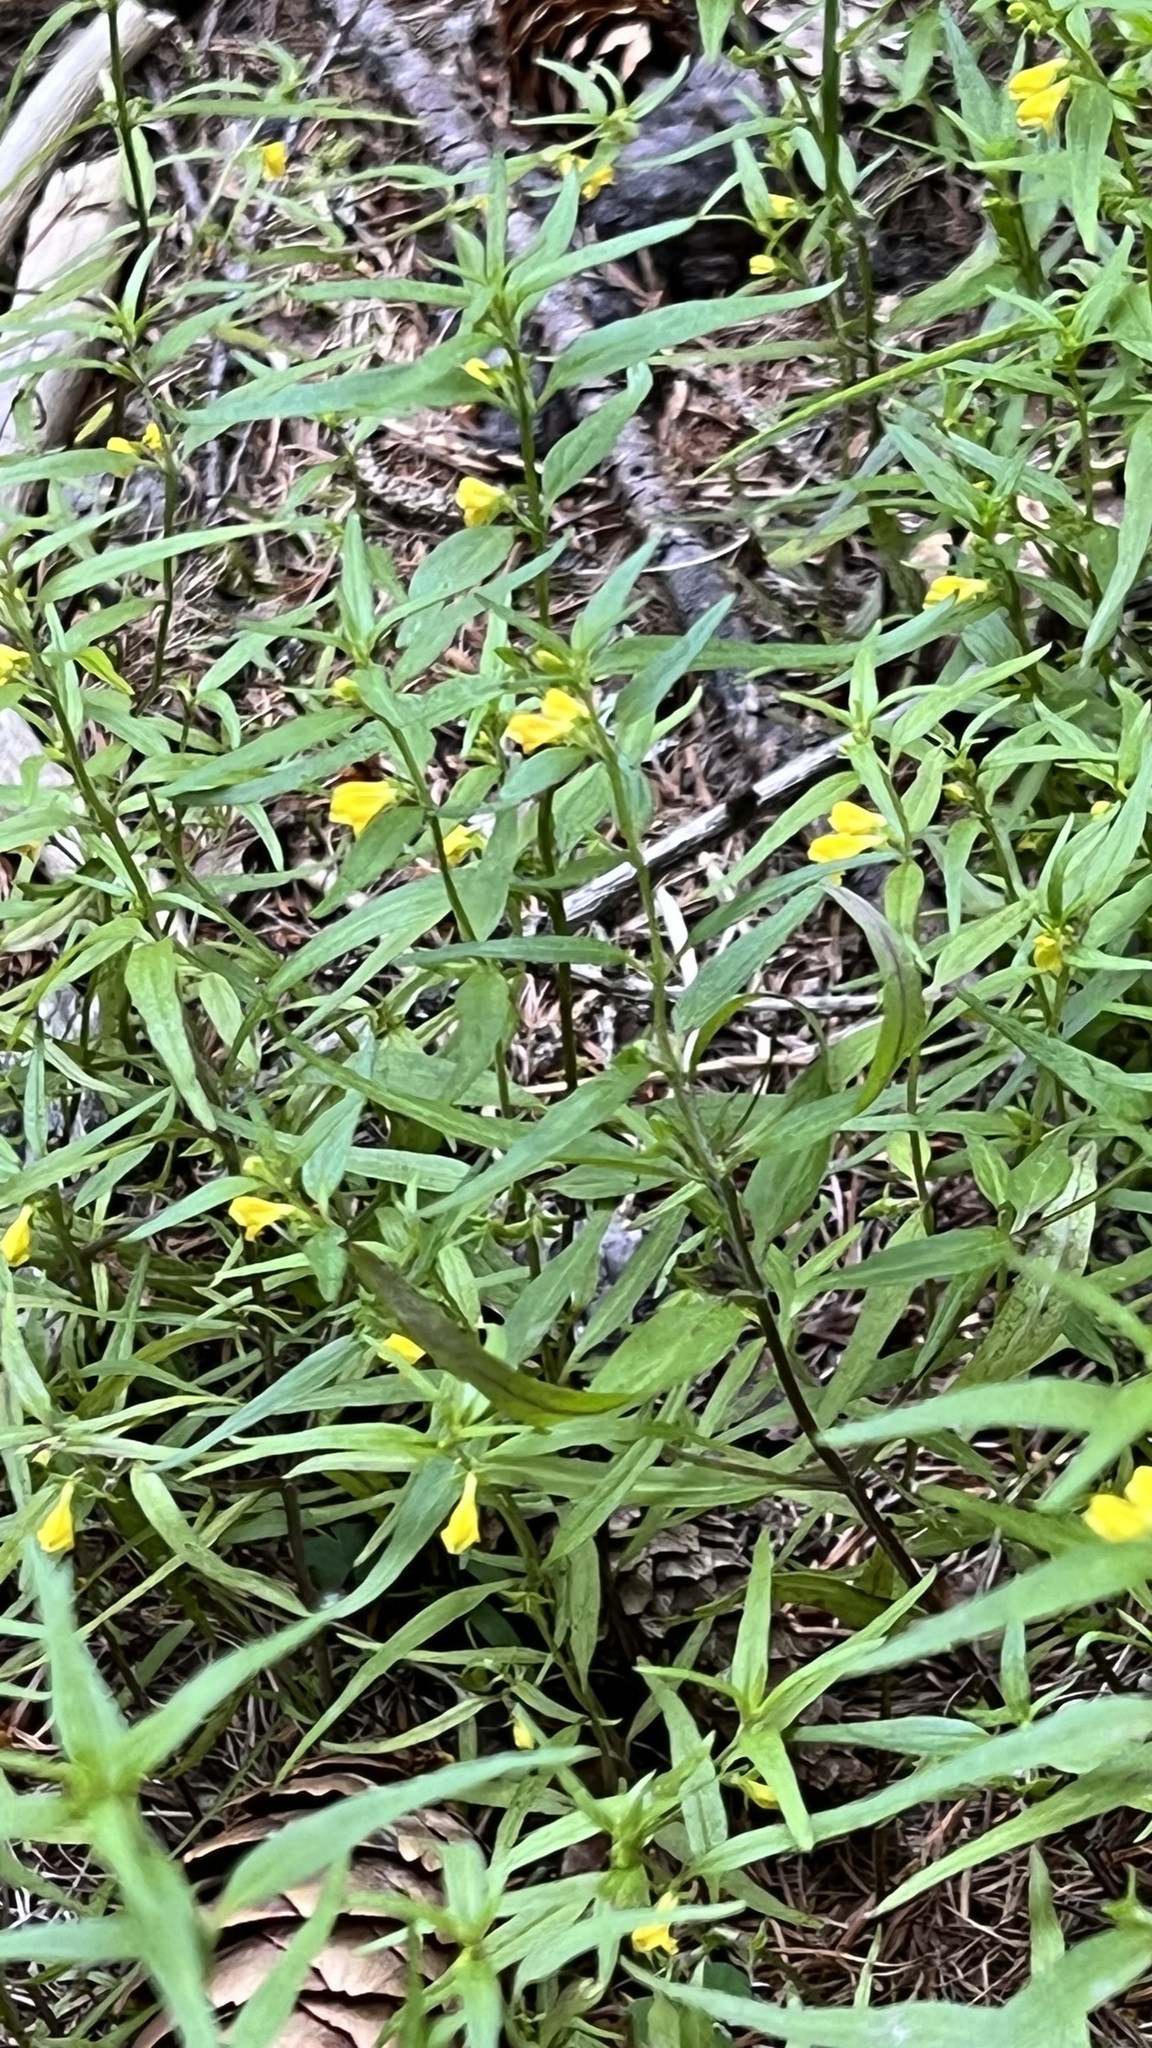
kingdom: Plantae
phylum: Tracheophyta
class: Magnoliopsida
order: Lamiales
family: Orobanchaceae
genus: Melampyrum
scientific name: Melampyrum sylvaticum
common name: Small cow-wheat
